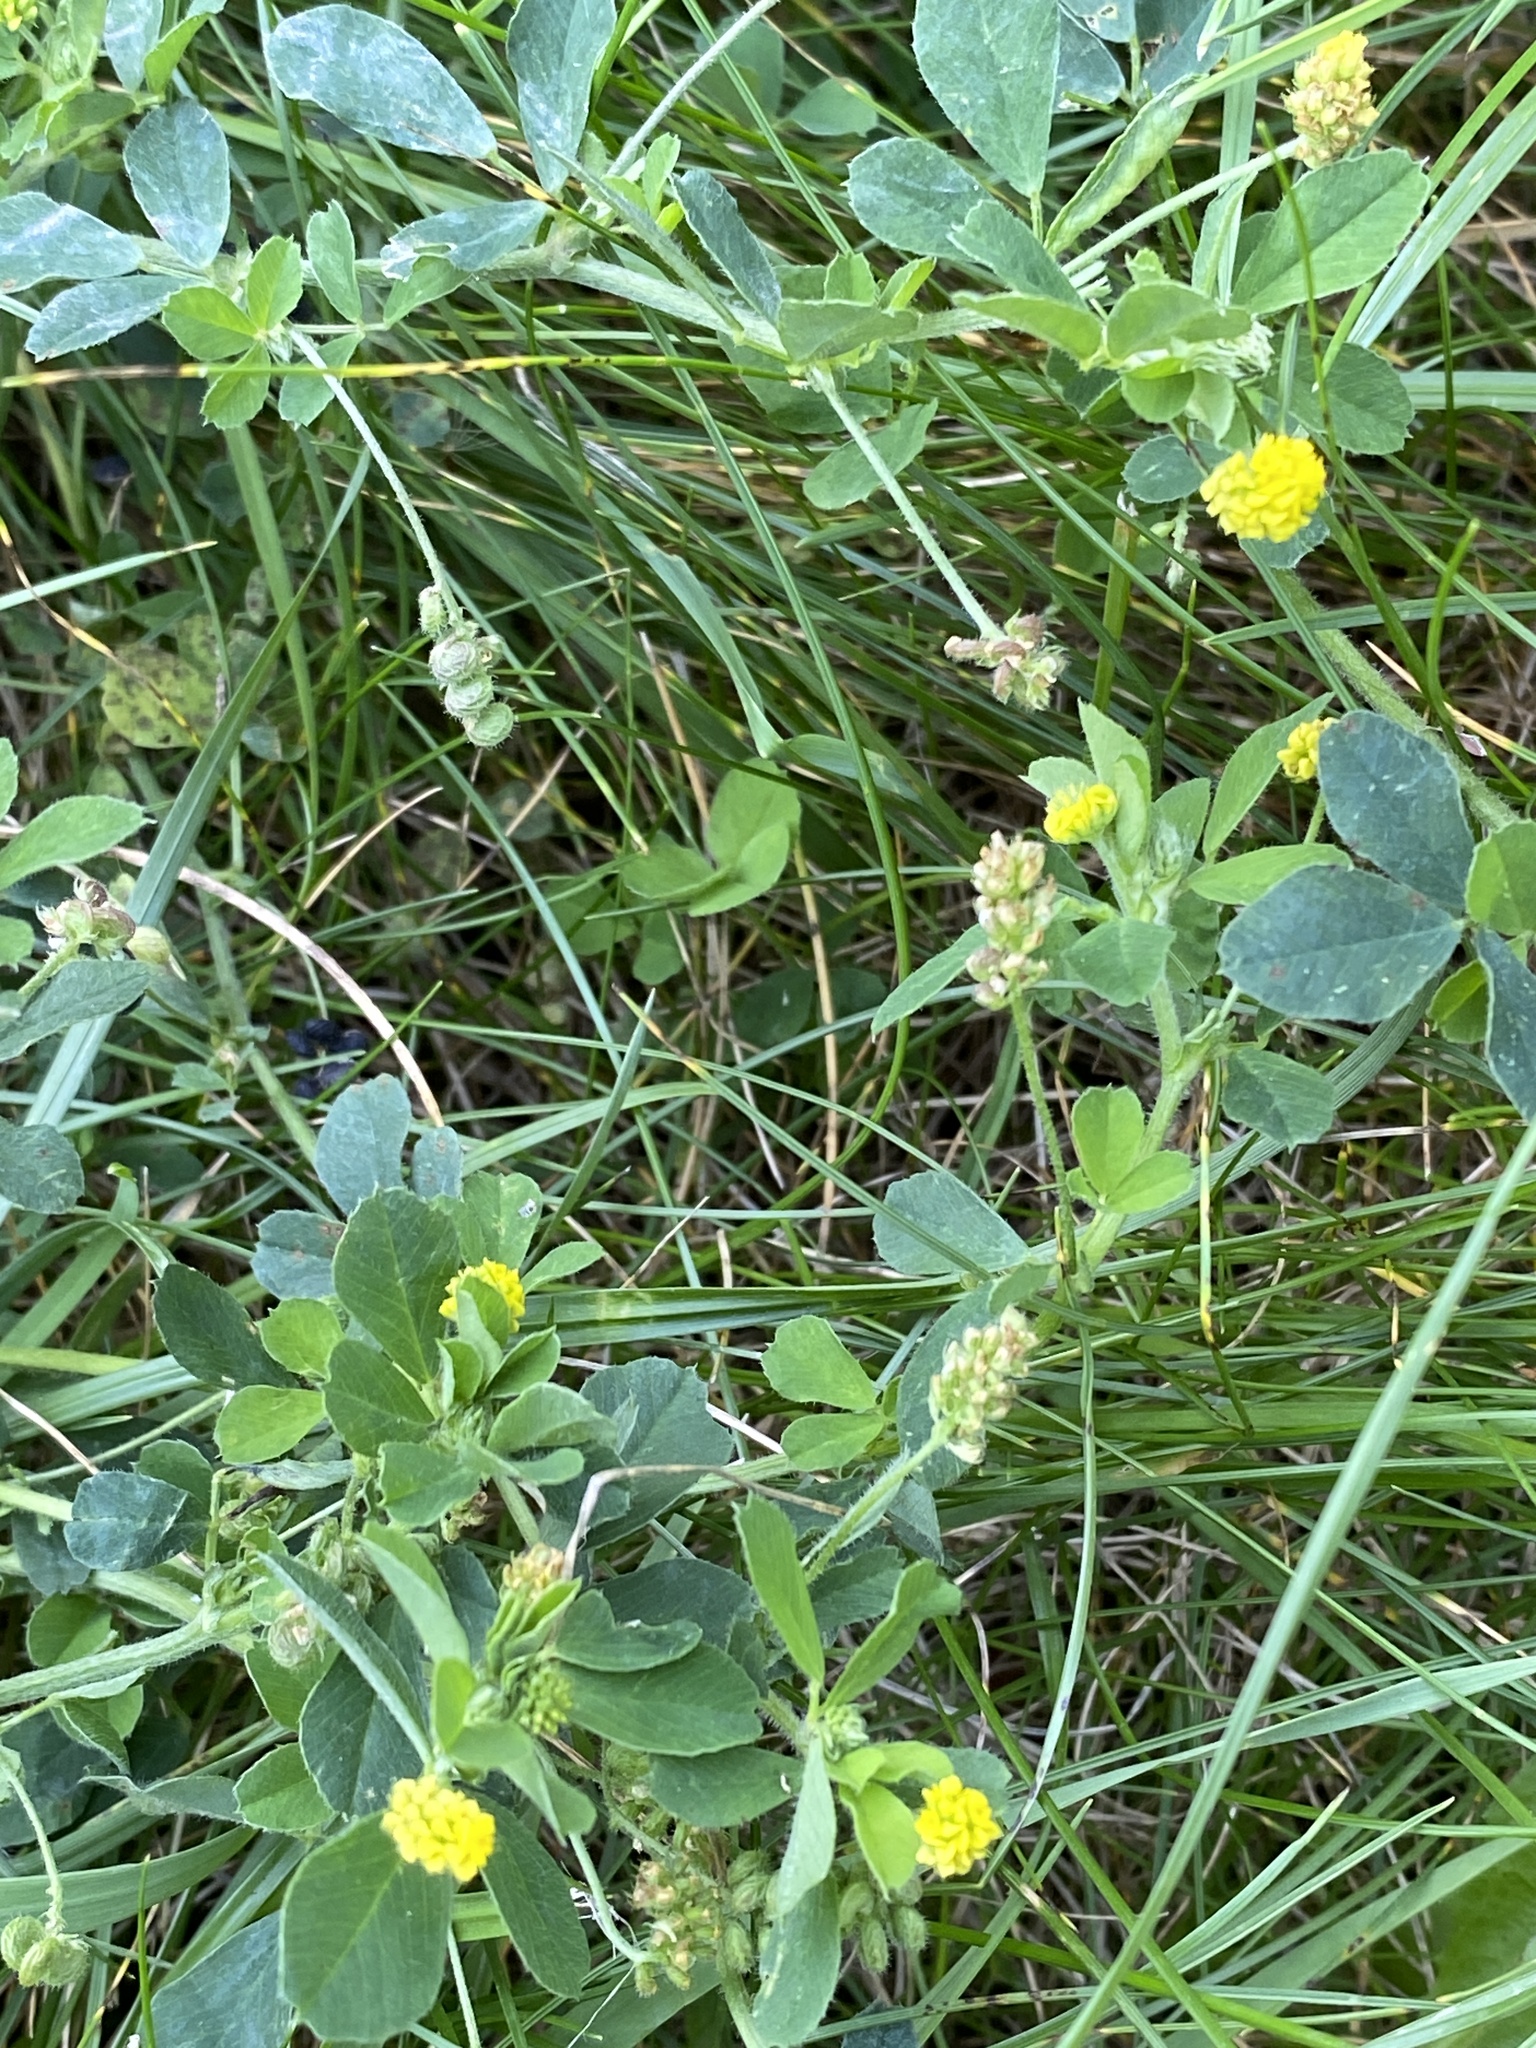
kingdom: Plantae
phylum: Tracheophyta
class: Magnoliopsida
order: Fabales
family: Fabaceae
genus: Medicago
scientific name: Medicago lupulina
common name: Black medick
